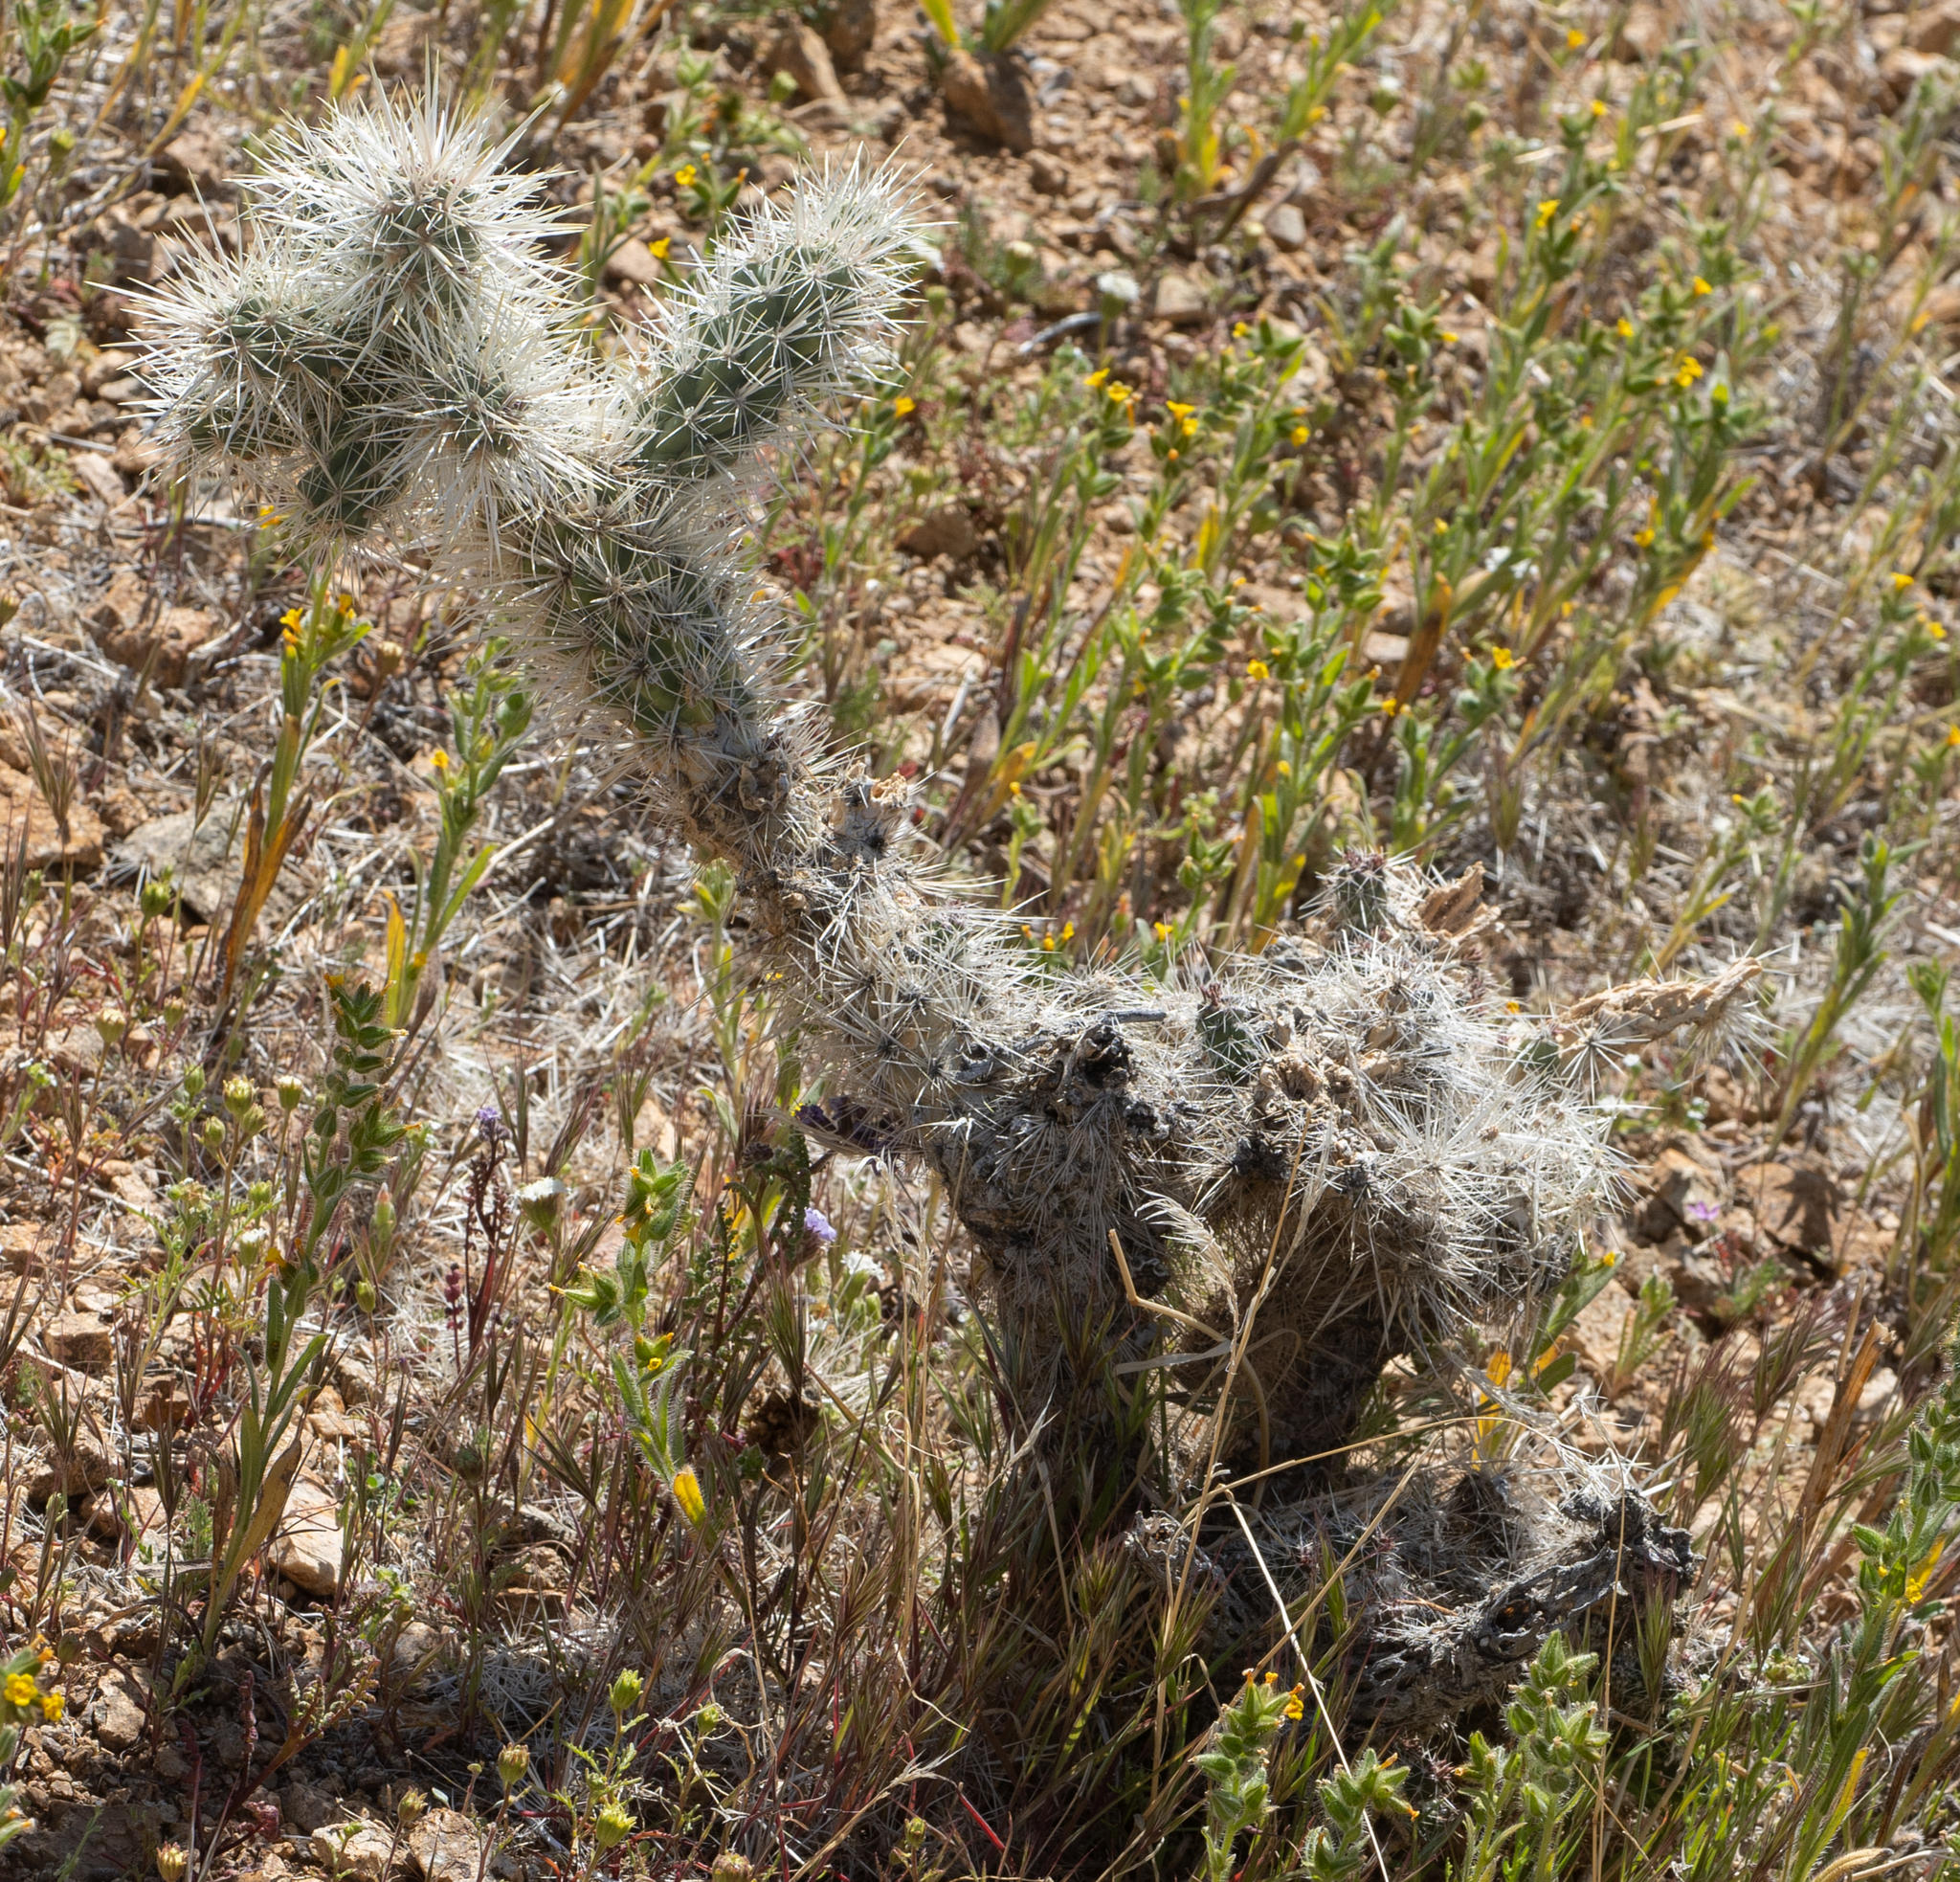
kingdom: Plantae
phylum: Tracheophyta
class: Magnoliopsida
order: Caryophyllales
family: Cactaceae
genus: Cylindropuntia
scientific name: Cylindropuntia echinocarpa
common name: Ground cholla
